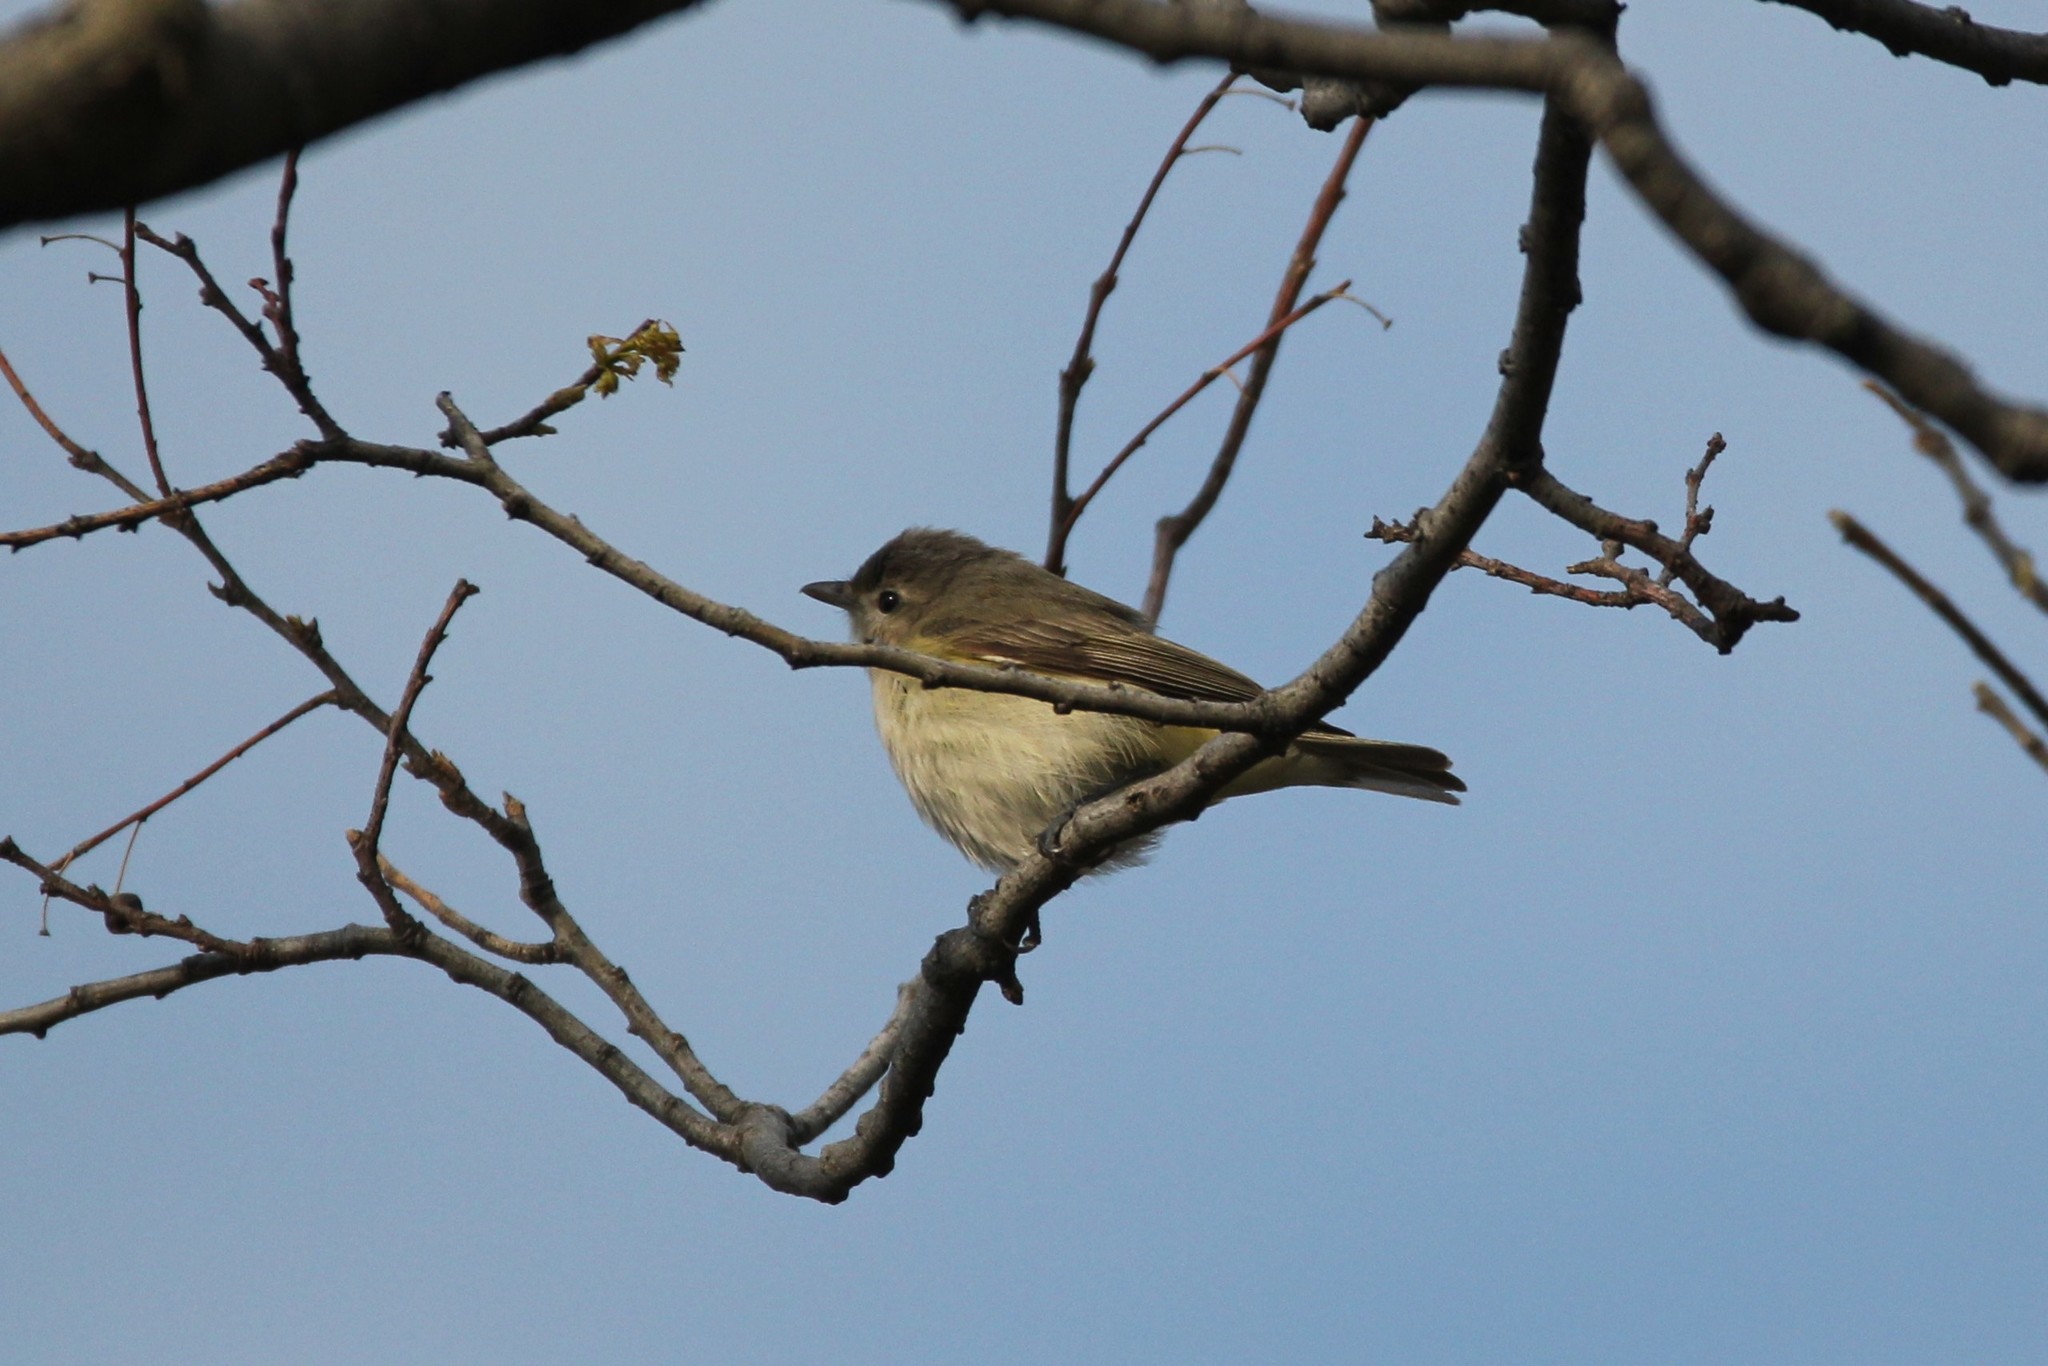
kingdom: Animalia
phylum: Chordata
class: Aves
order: Passeriformes
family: Vireonidae
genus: Vireo
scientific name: Vireo gilvus
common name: Warbling vireo
